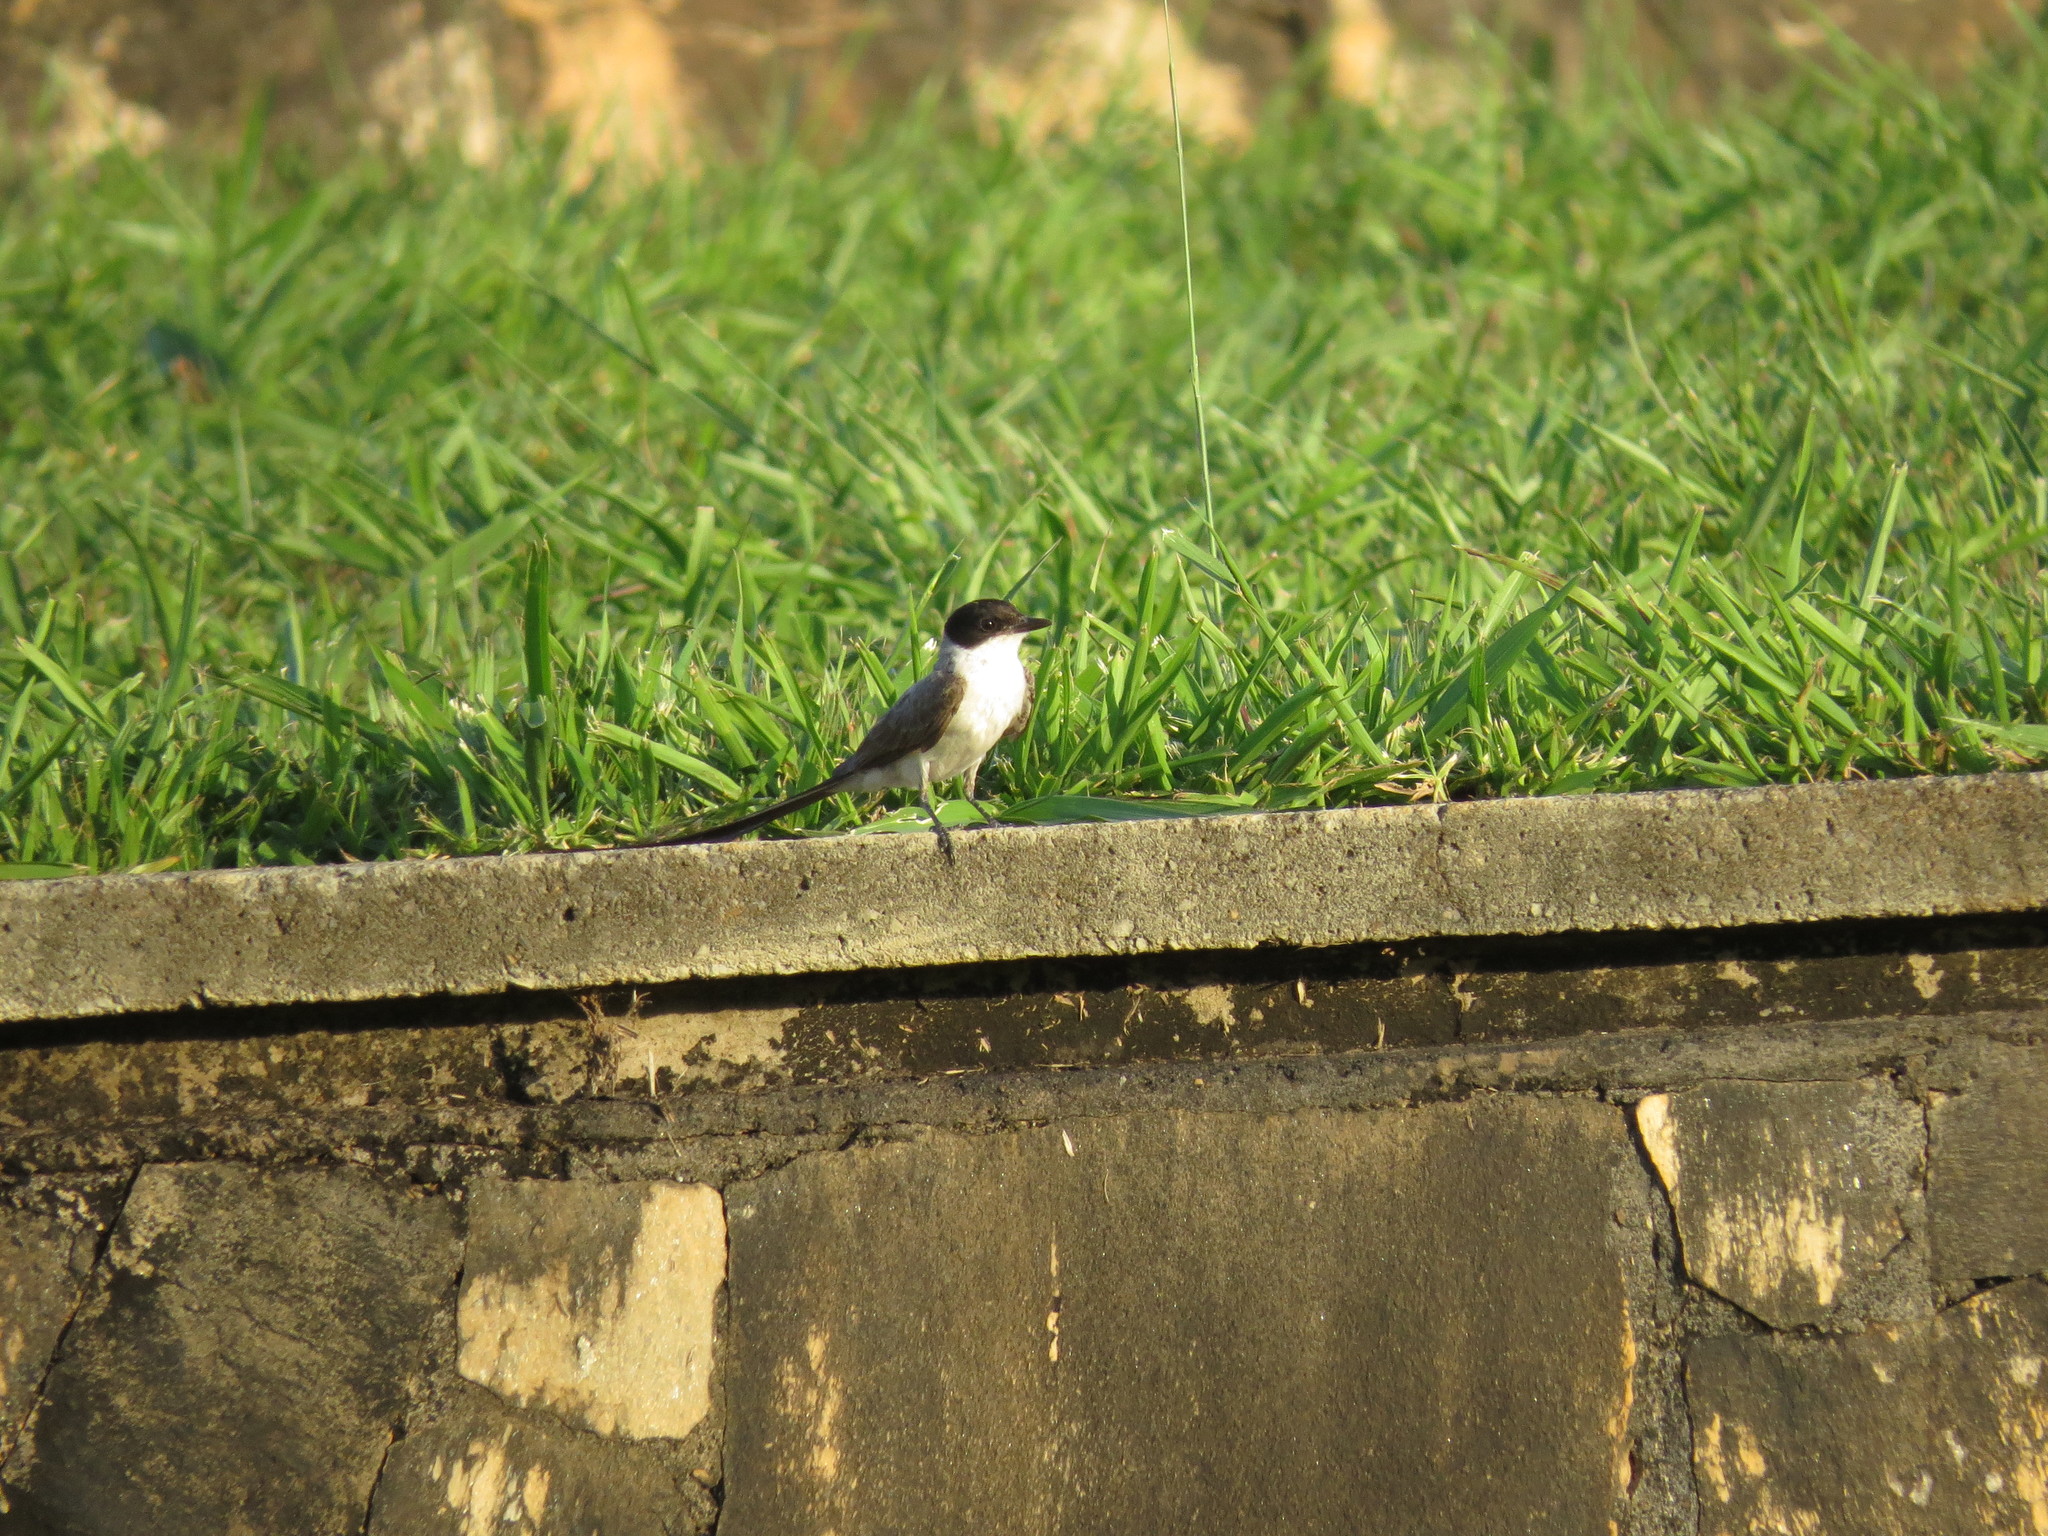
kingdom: Animalia
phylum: Chordata
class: Aves
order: Passeriformes
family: Tyrannidae
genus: Tyrannus
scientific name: Tyrannus savana
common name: Fork-tailed flycatcher
